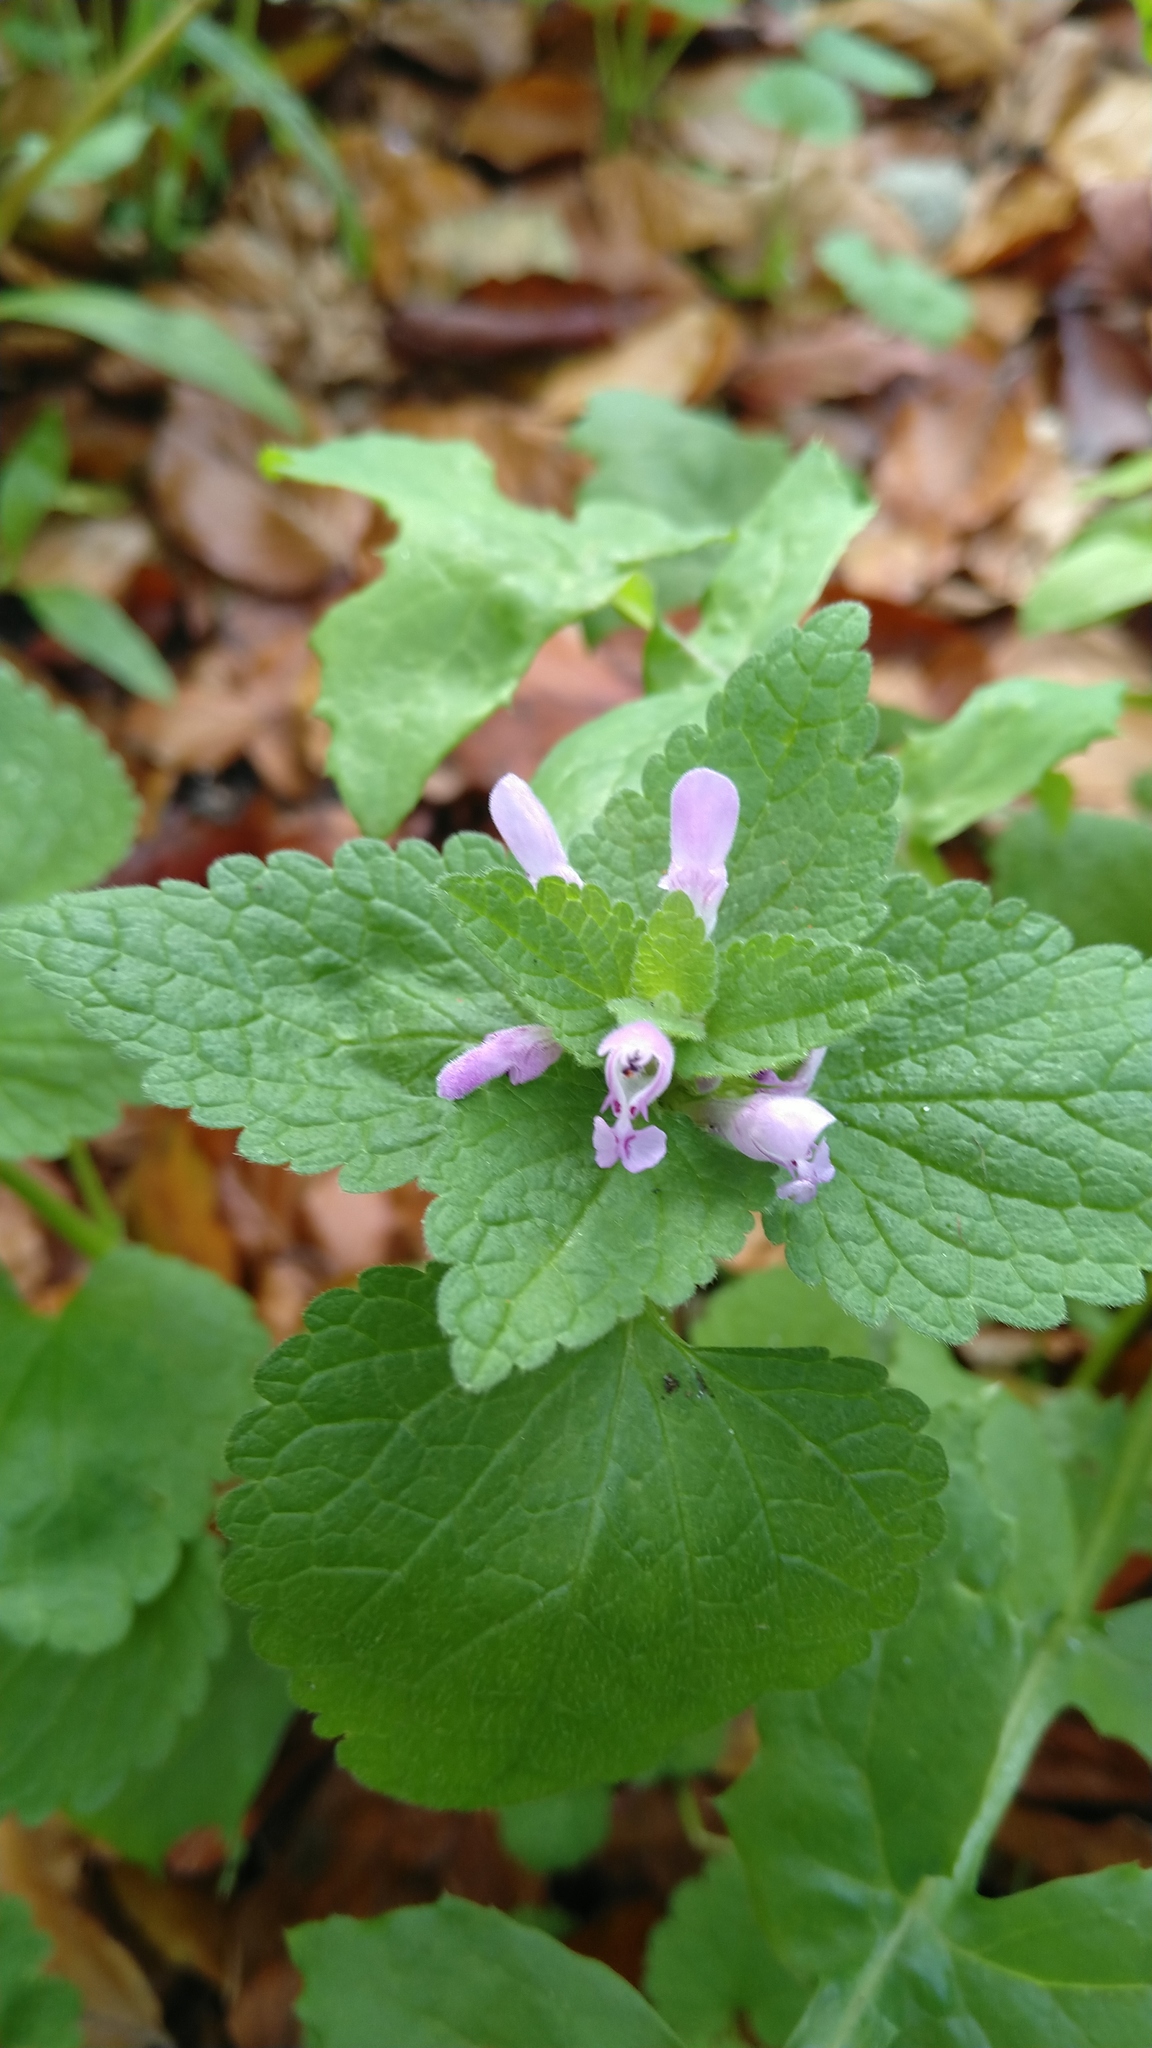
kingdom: Plantae
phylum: Tracheophyta
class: Magnoliopsida
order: Lamiales
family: Lamiaceae
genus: Lamium
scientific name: Lamium purpureum
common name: Red dead-nettle
